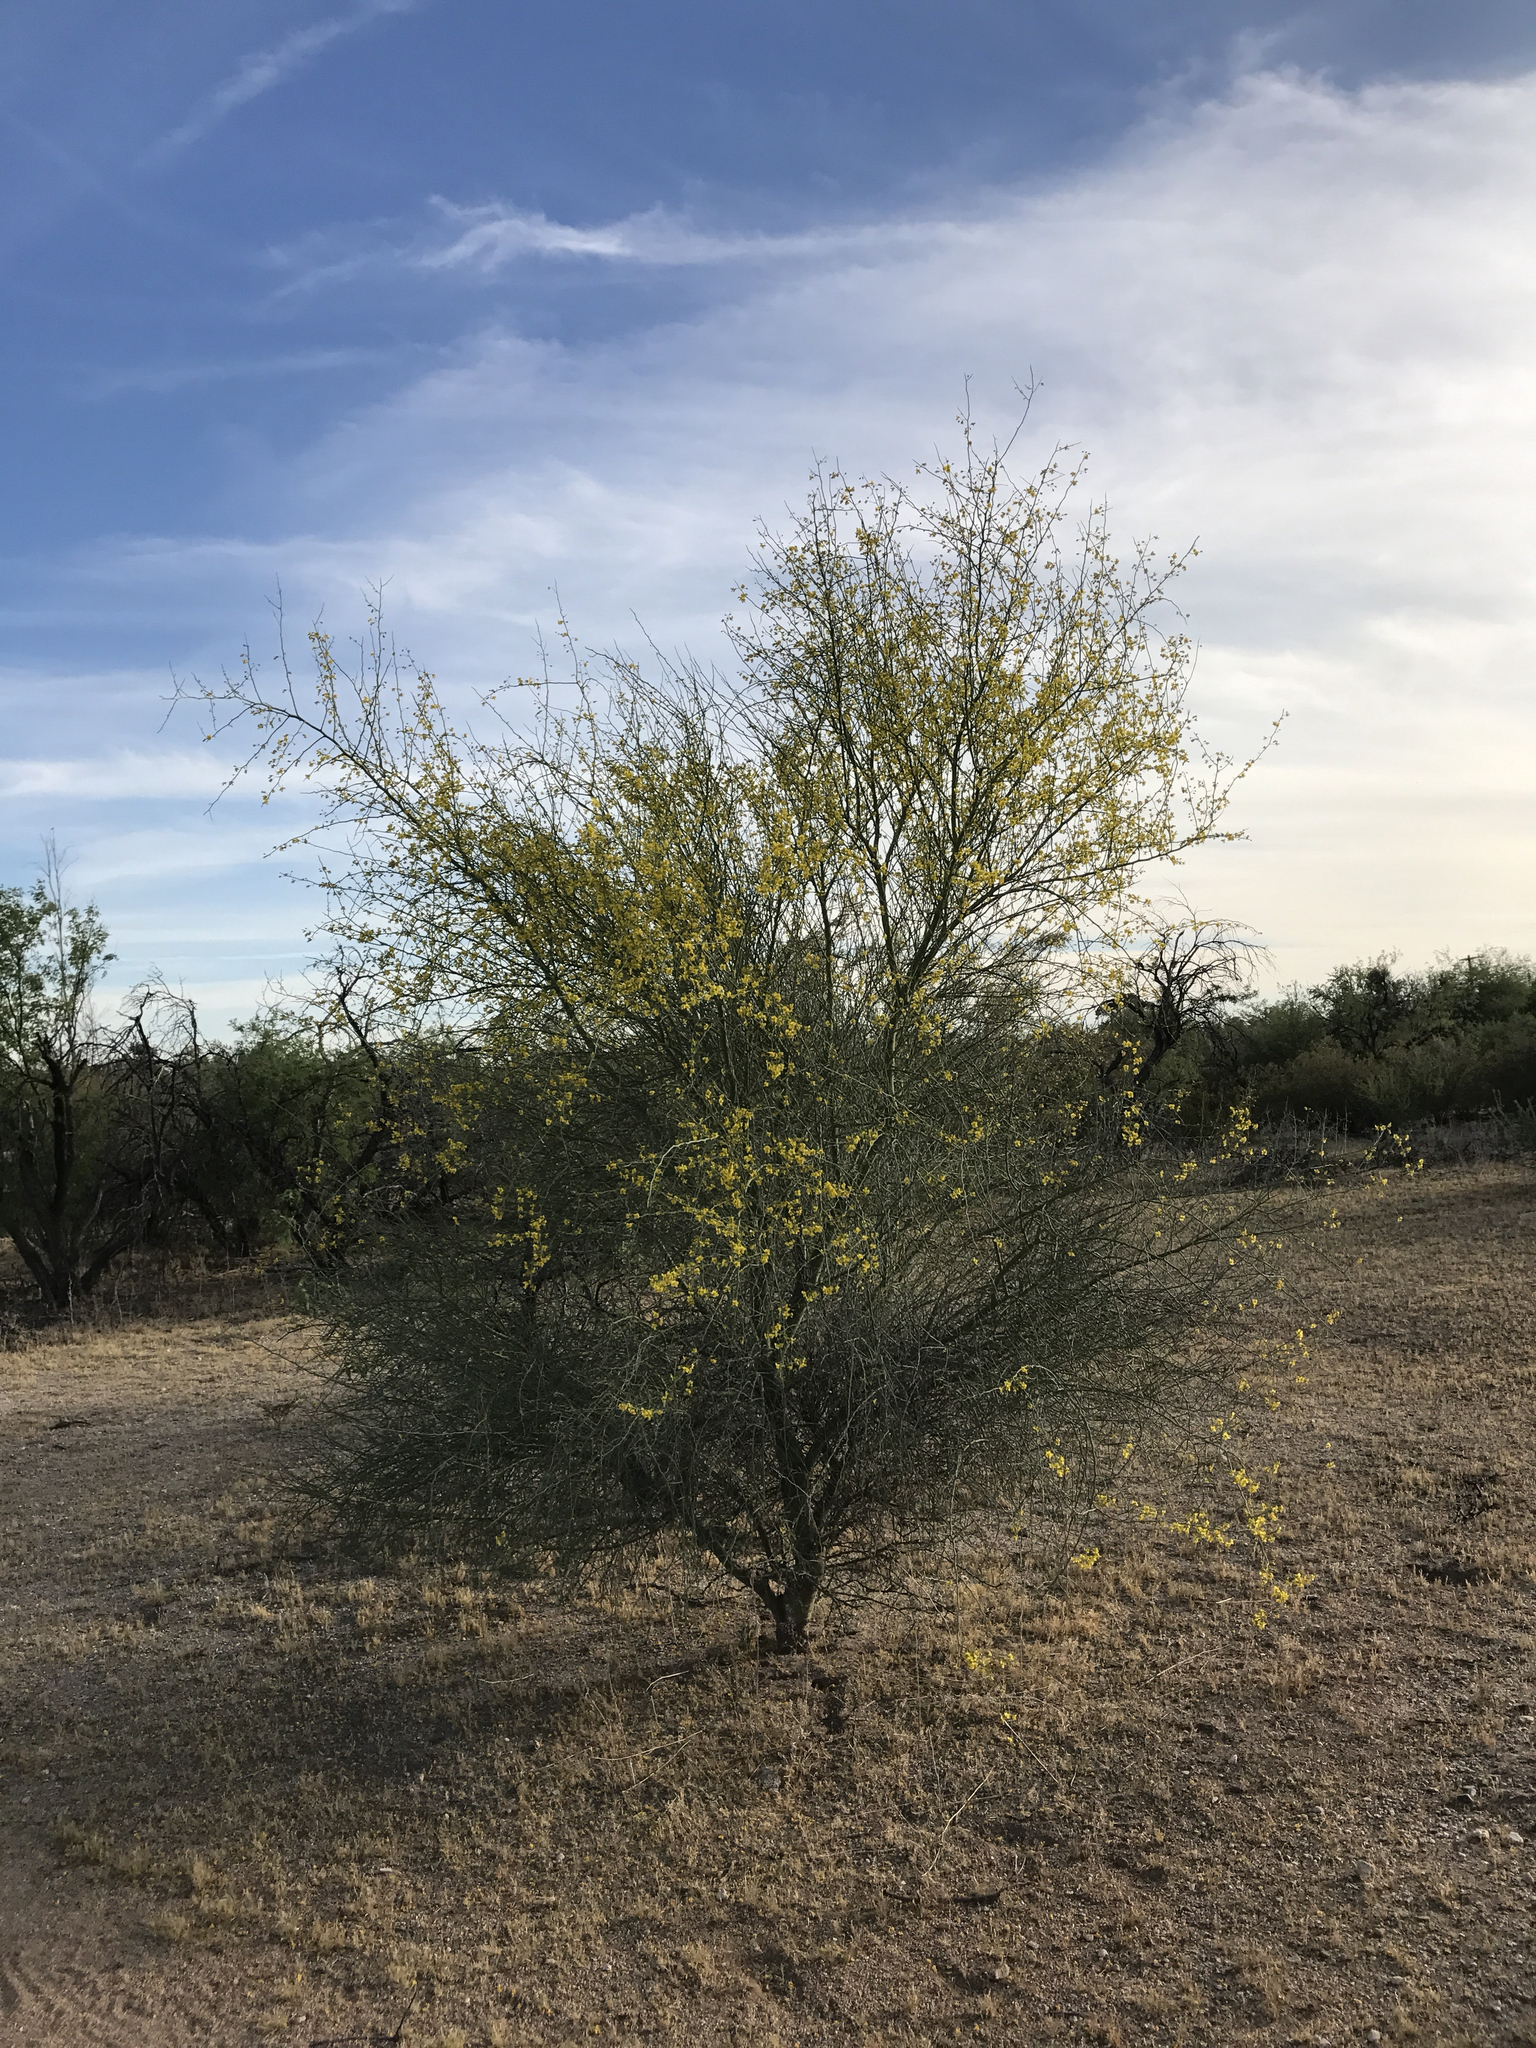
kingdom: Plantae
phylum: Tracheophyta
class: Magnoliopsida
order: Fabales
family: Fabaceae
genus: Parkinsonia
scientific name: Parkinsonia florida
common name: Blue paloverde
